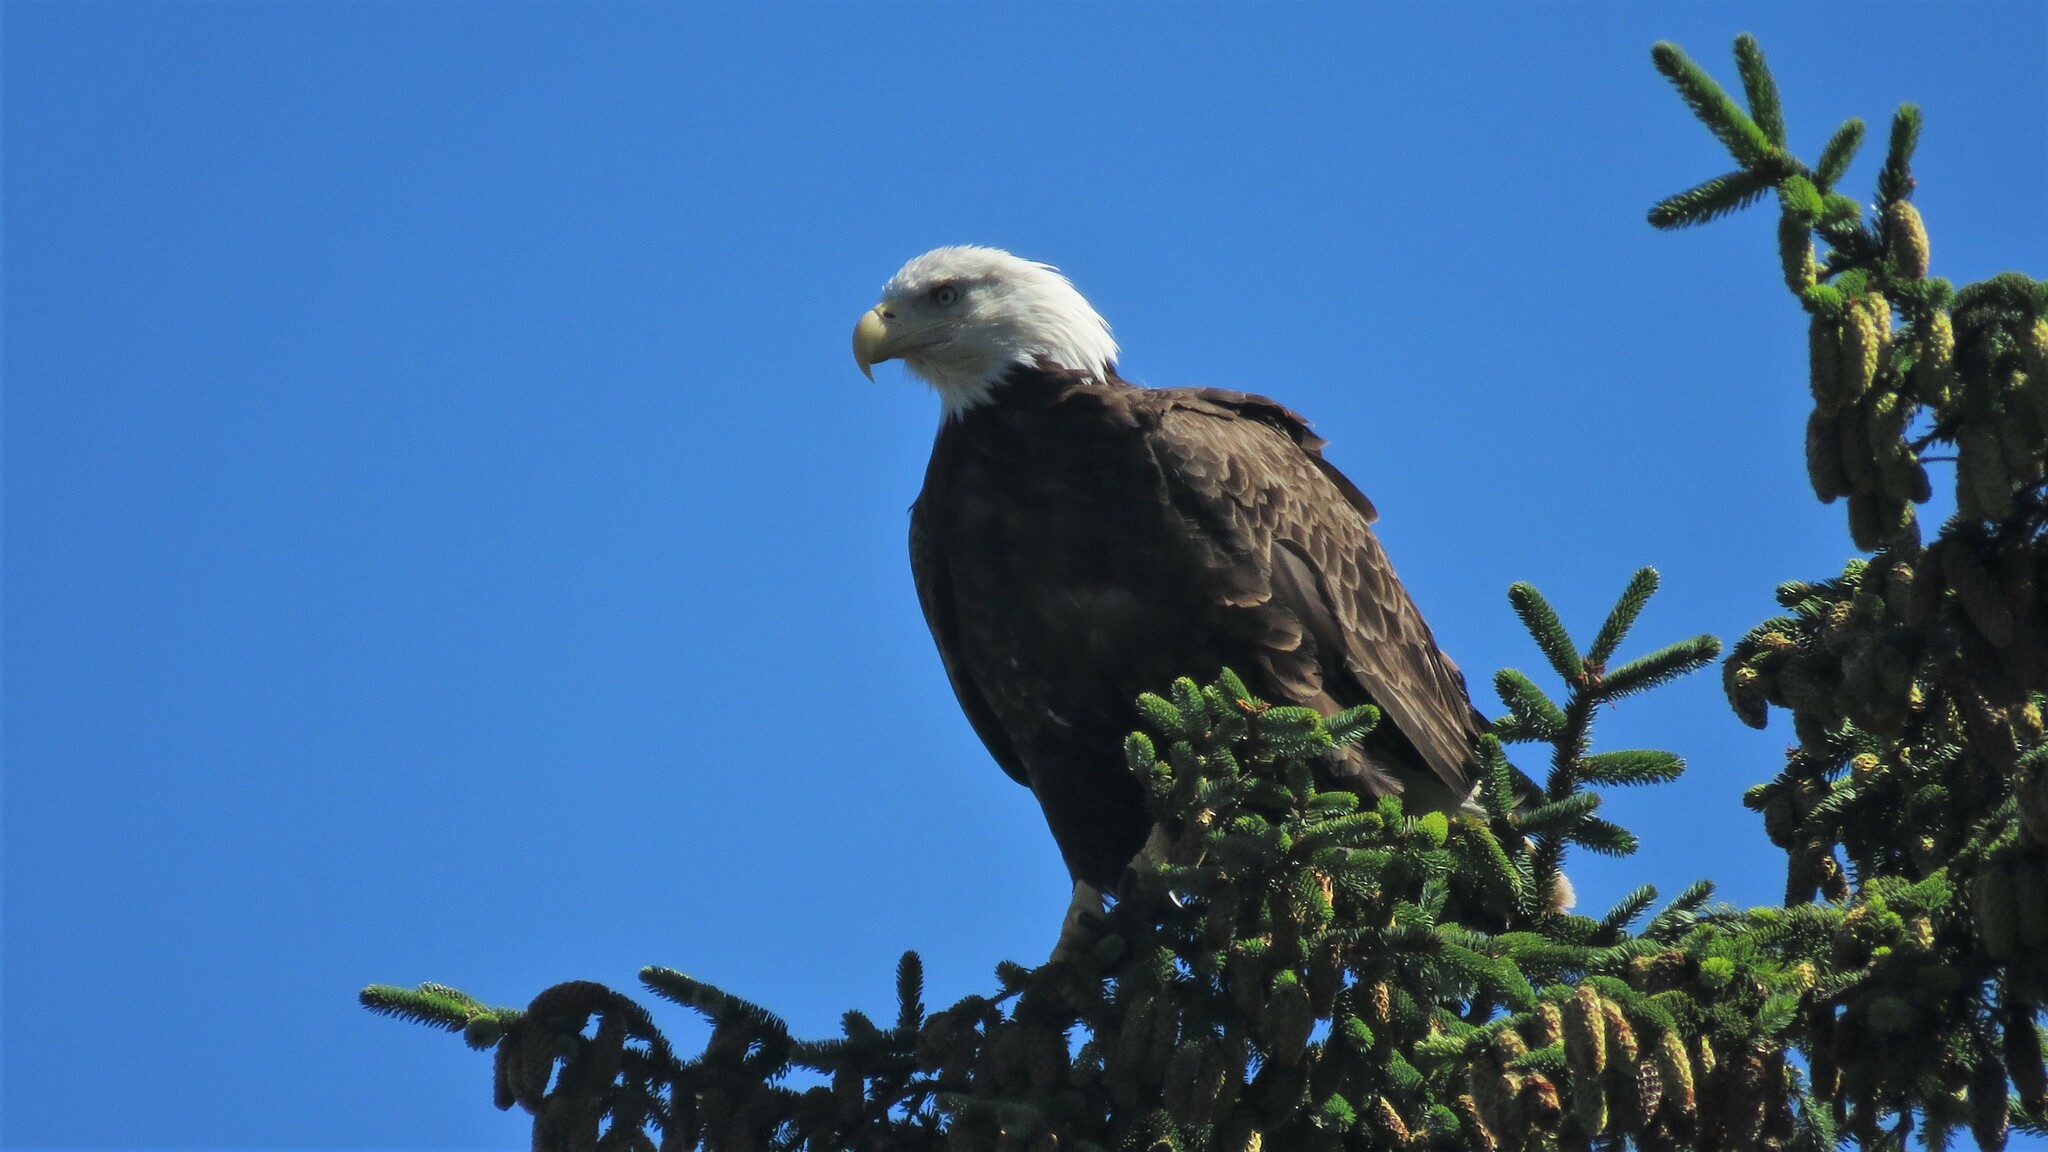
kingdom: Animalia
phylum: Chordata
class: Aves
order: Accipitriformes
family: Accipitridae
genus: Haliaeetus
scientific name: Haliaeetus leucocephalus
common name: Bald eagle
